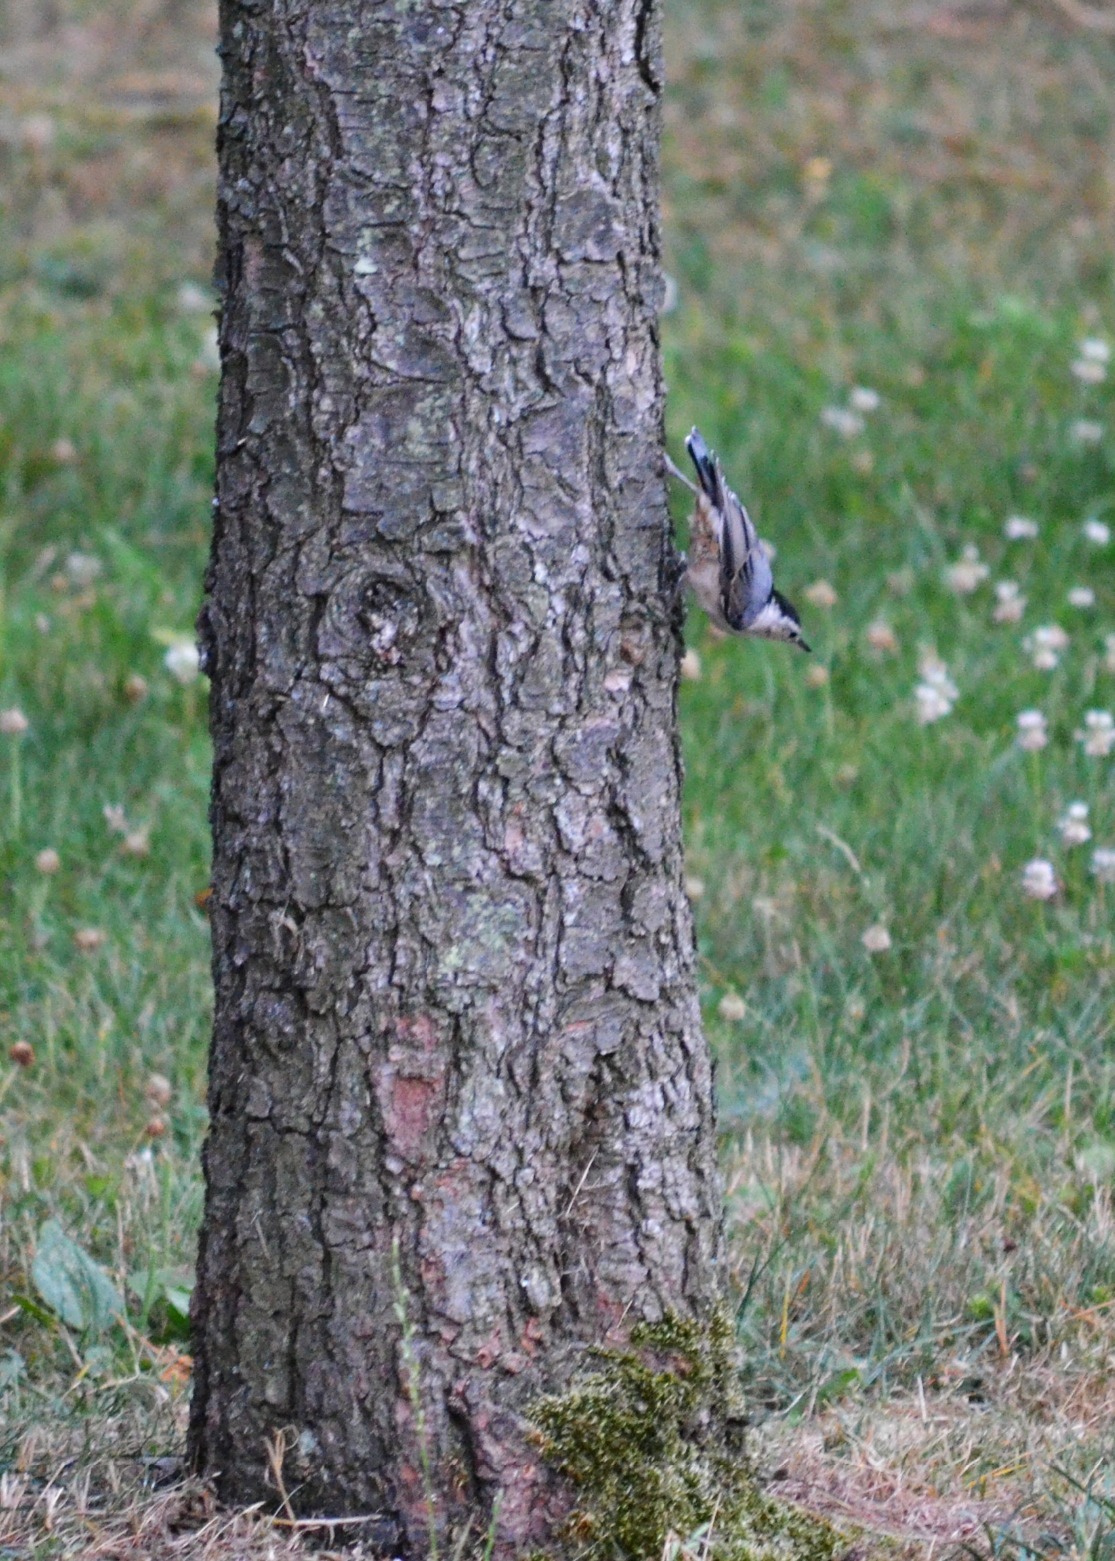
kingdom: Animalia
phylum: Chordata
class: Aves
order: Passeriformes
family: Sittidae
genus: Sitta
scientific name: Sitta carolinensis
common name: White-breasted nuthatch
